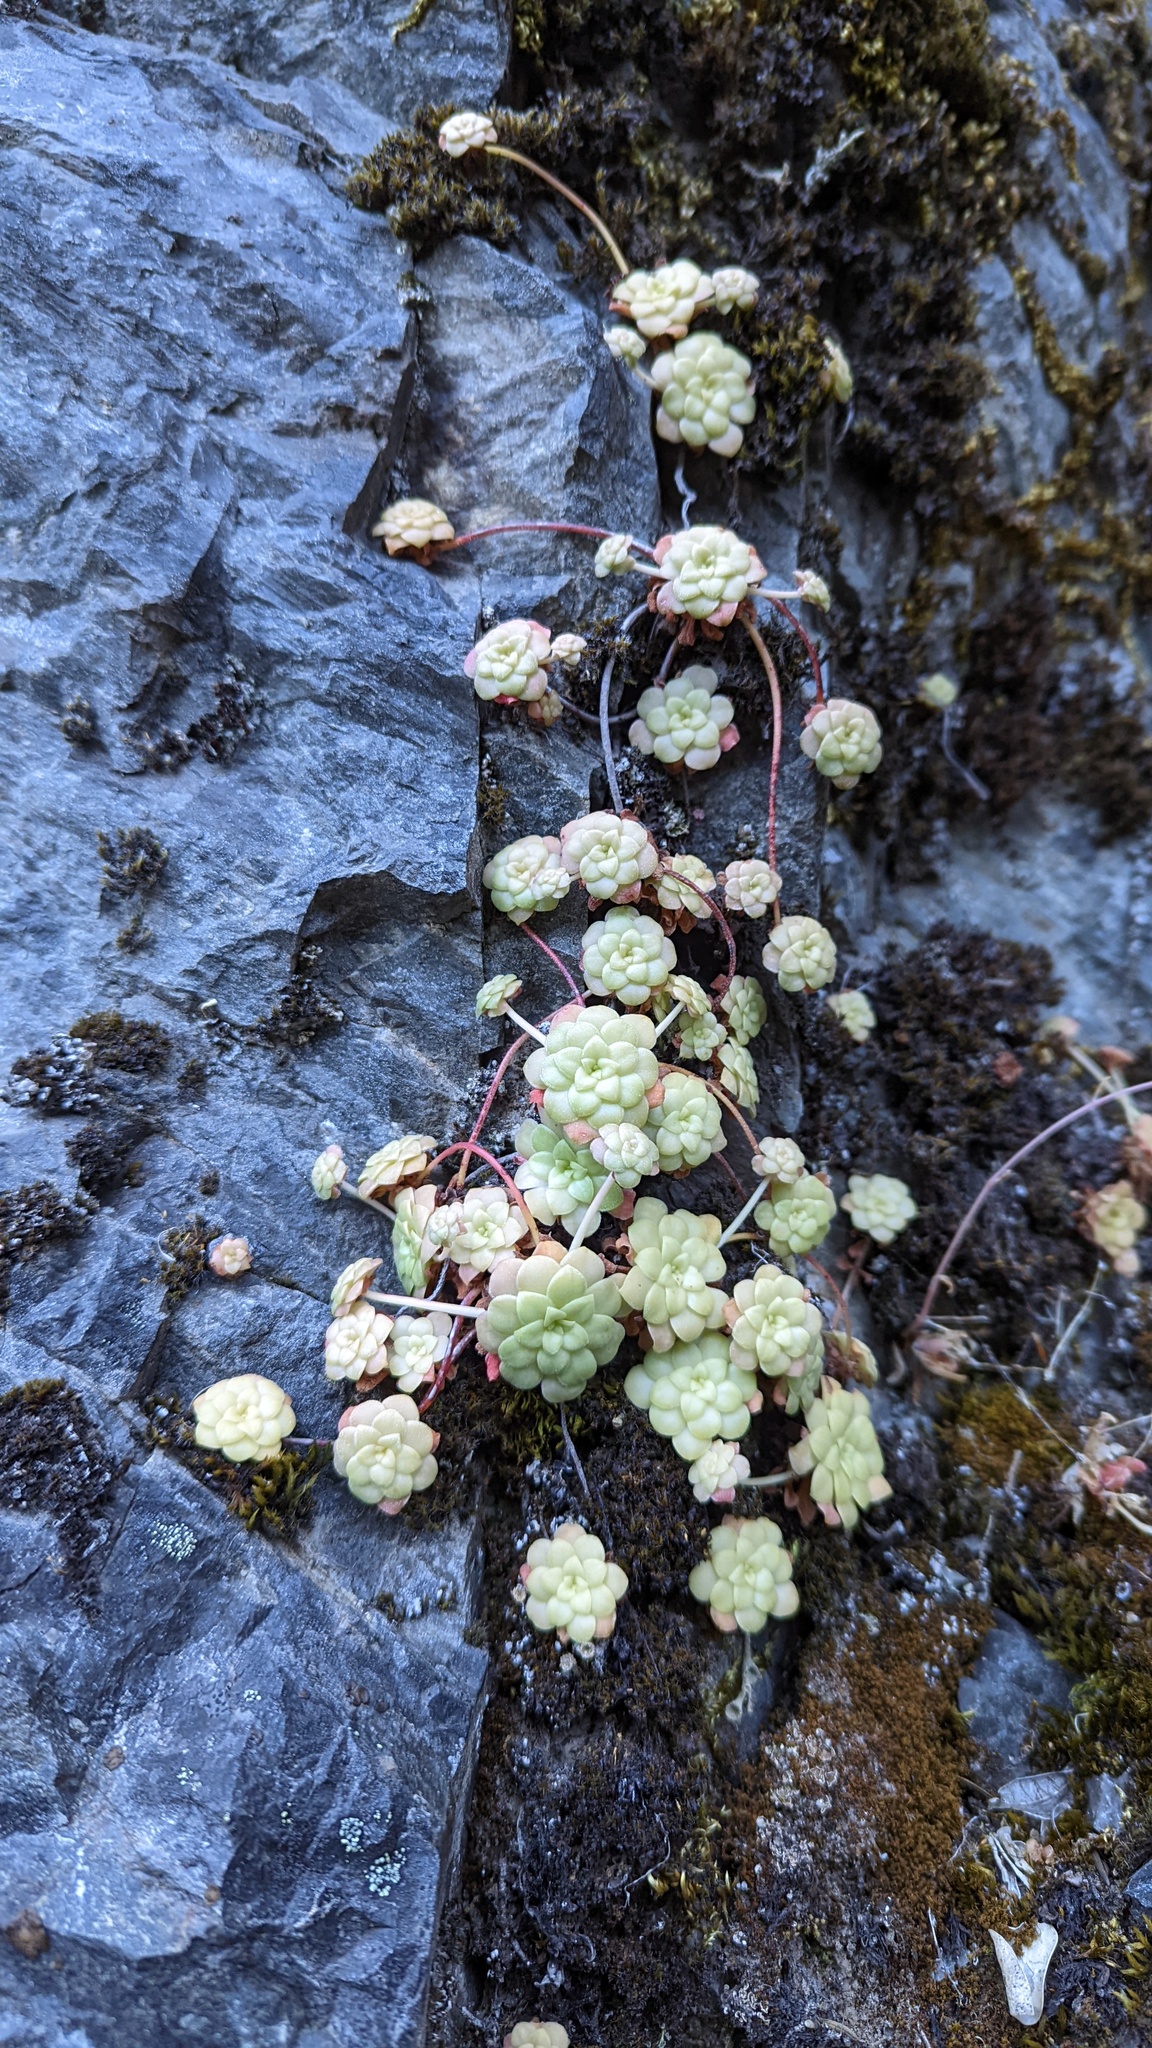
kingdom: Plantae
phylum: Tracheophyta
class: Magnoliopsida
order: Saxifragales
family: Crassulaceae
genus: Sedum
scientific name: Sedum spathulifolium
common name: Colorado stonecrop
